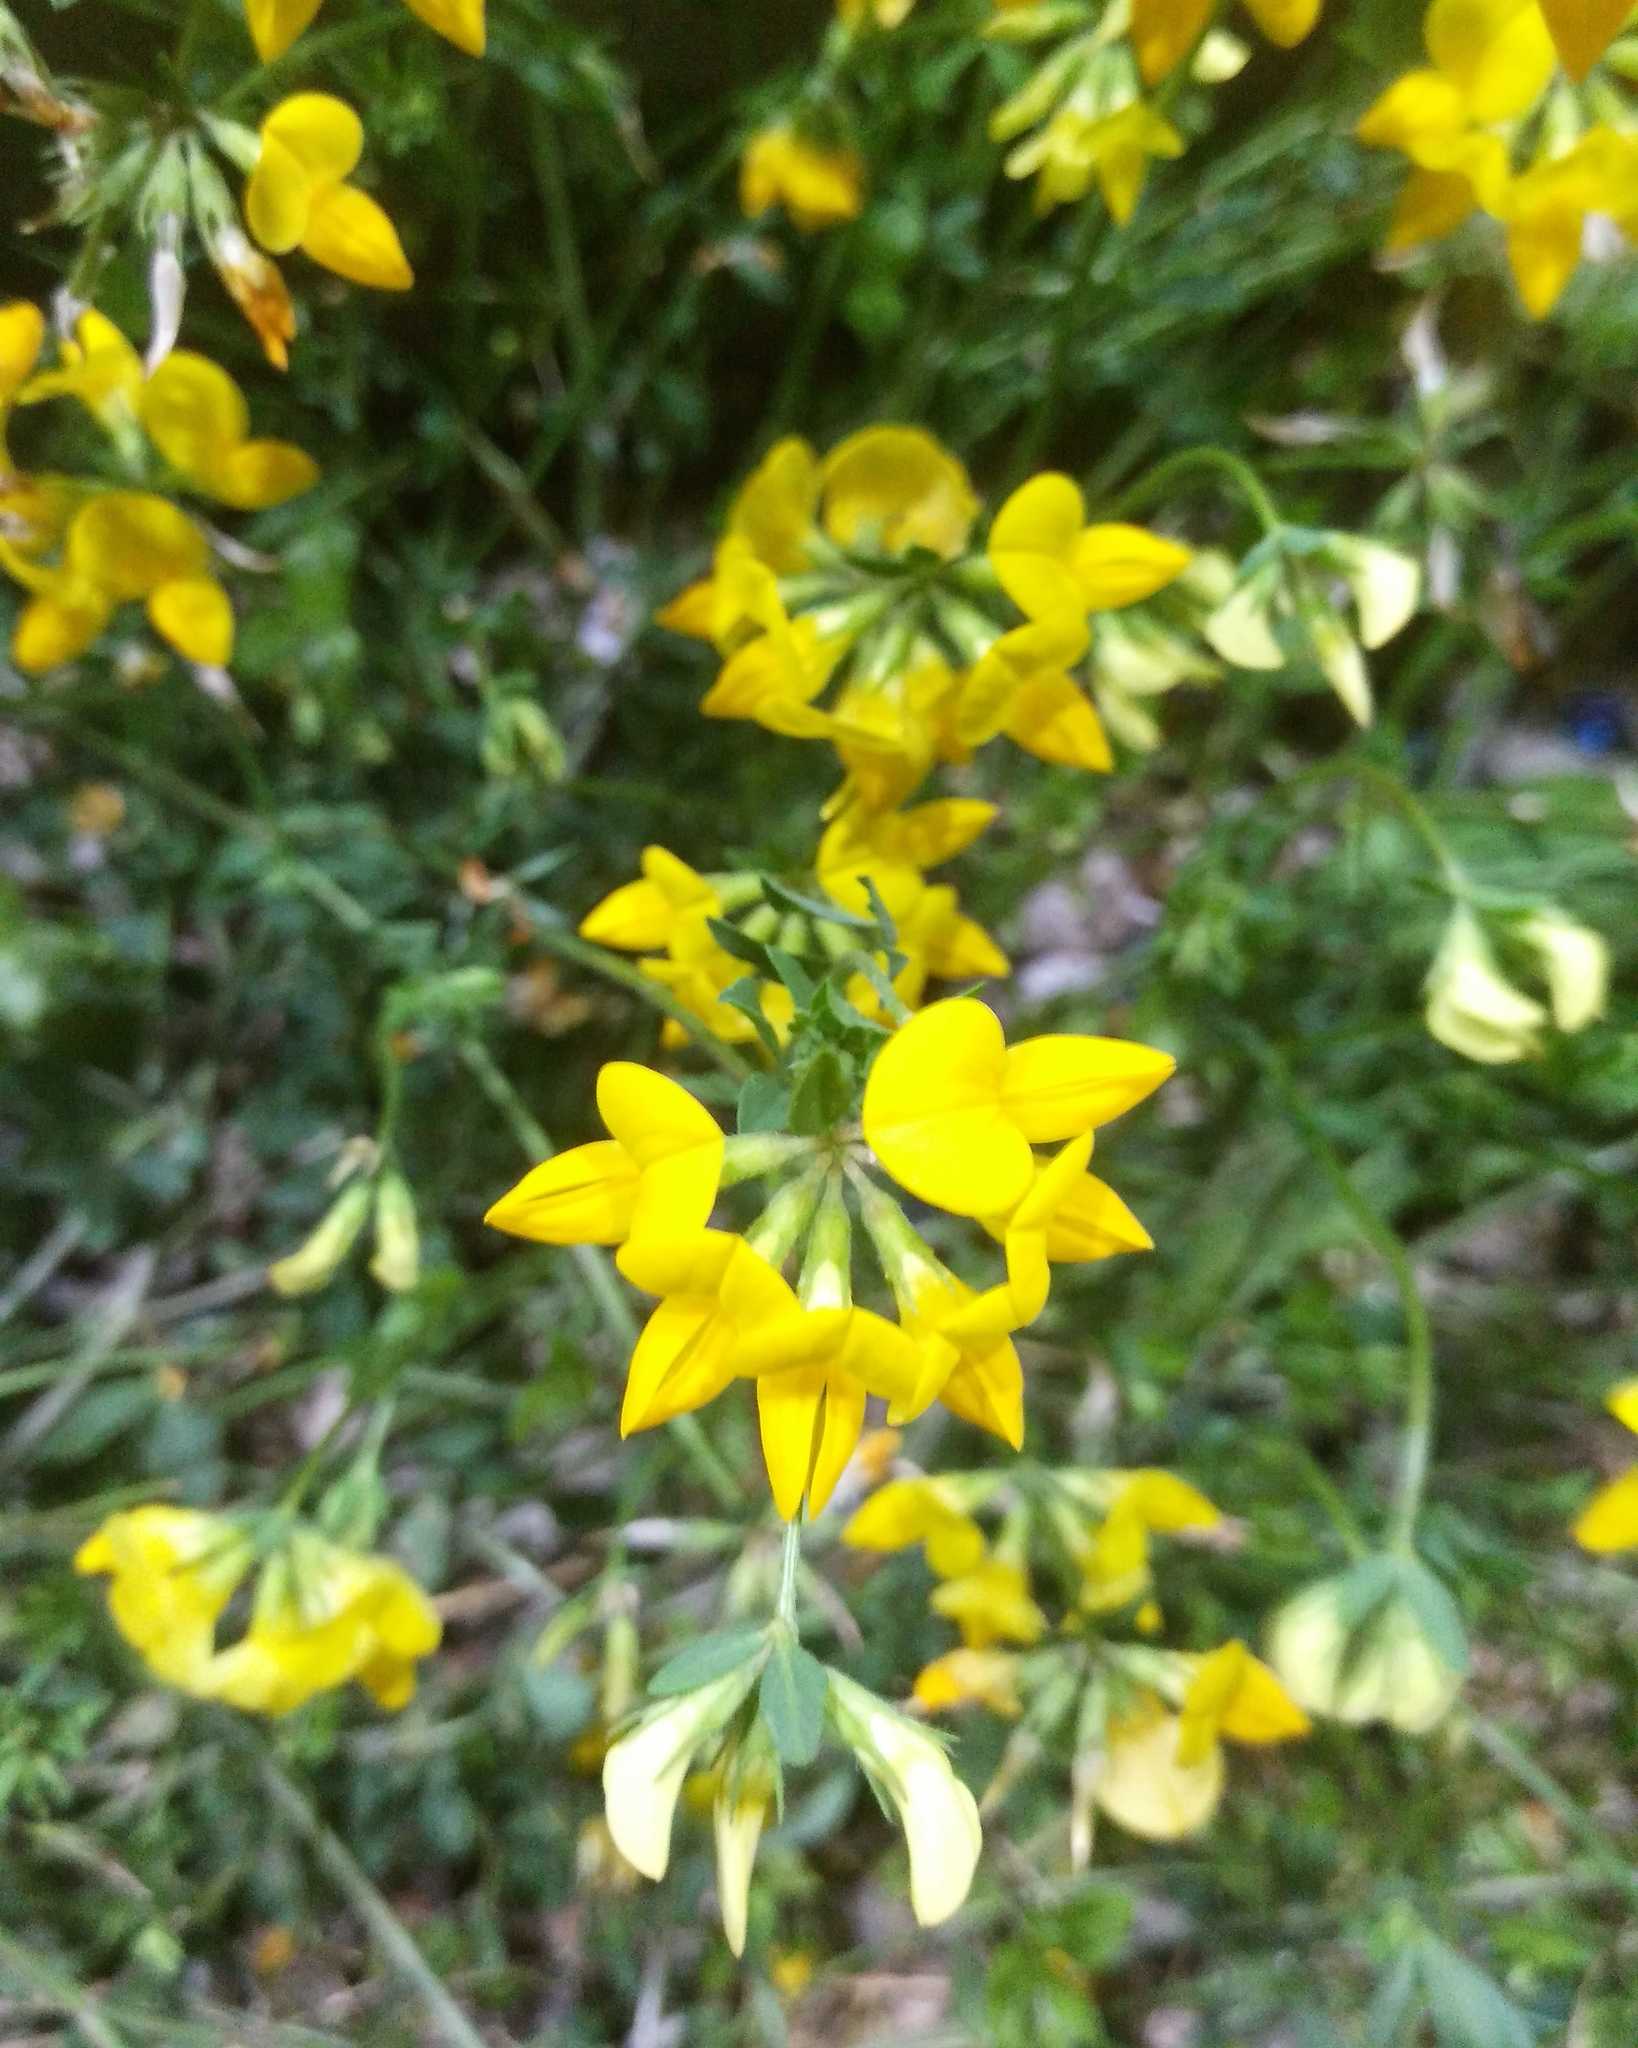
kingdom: Plantae
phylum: Tracheophyta
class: Magnoliopsida
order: Fabales
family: Fabaceae
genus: Lotus
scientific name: Lotus corniculatus
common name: Common bird's-foot-trefoil
